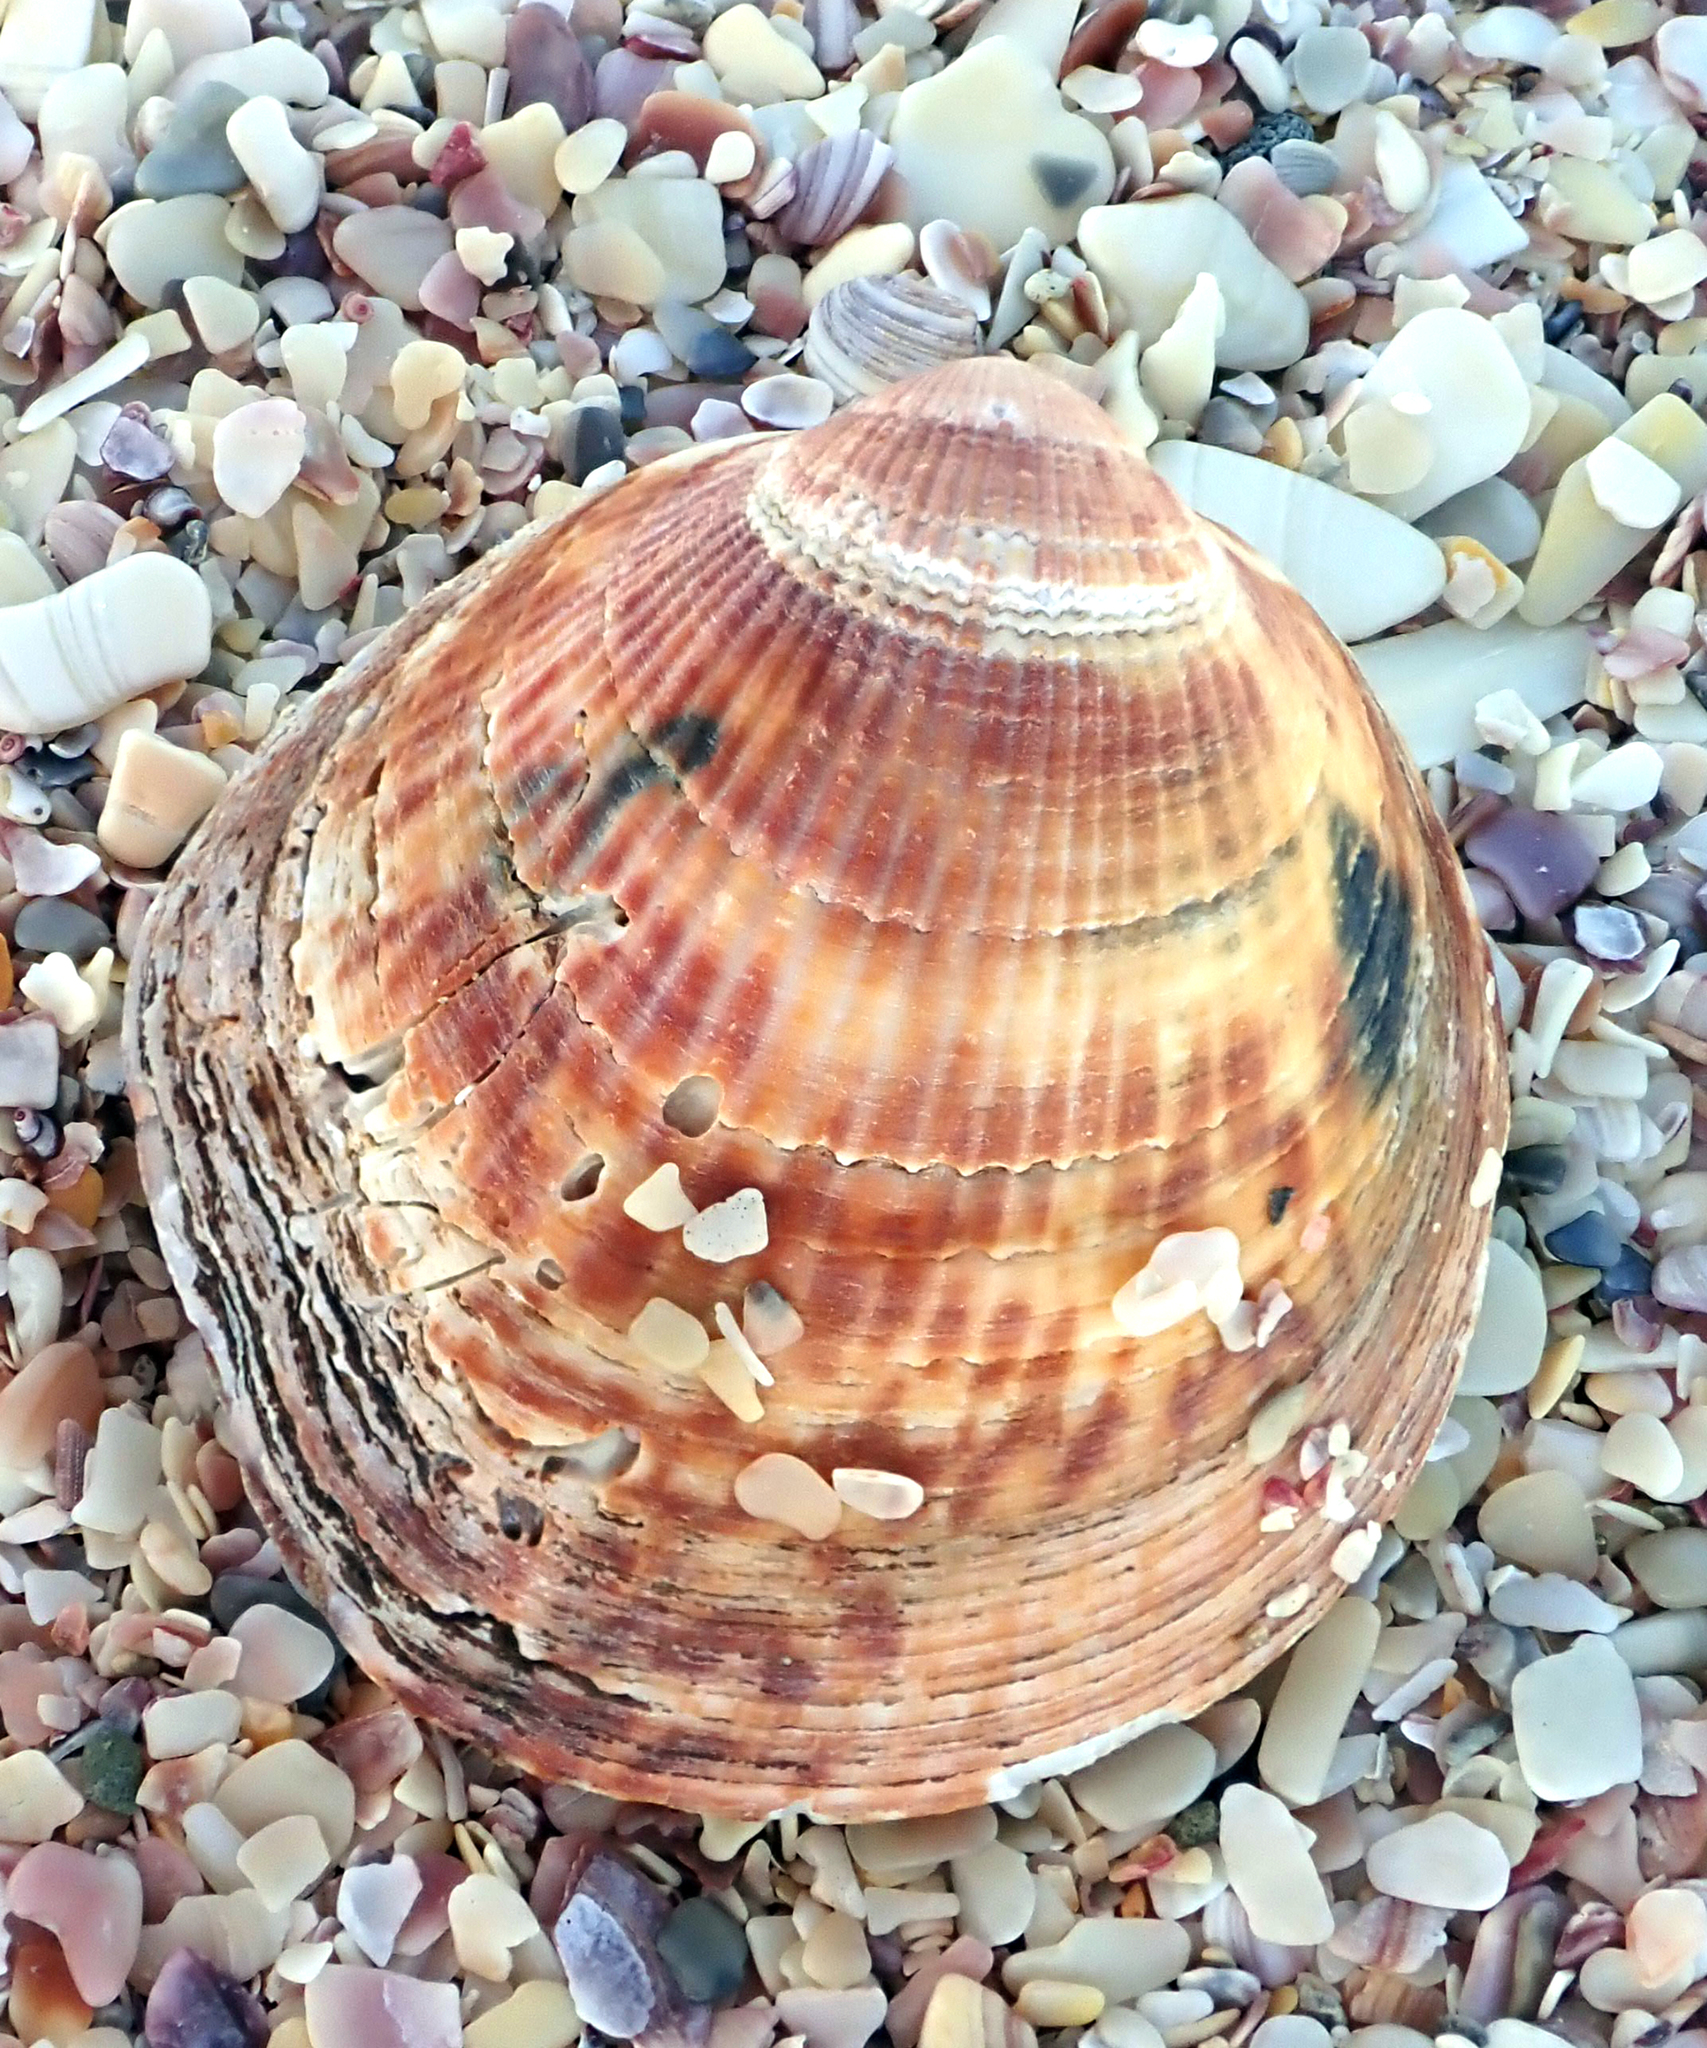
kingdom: Animalia
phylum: Mollusca
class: Bivalvia
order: Arcida
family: Glycymerididae
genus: Tucetona
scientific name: Tucetona laticostata
